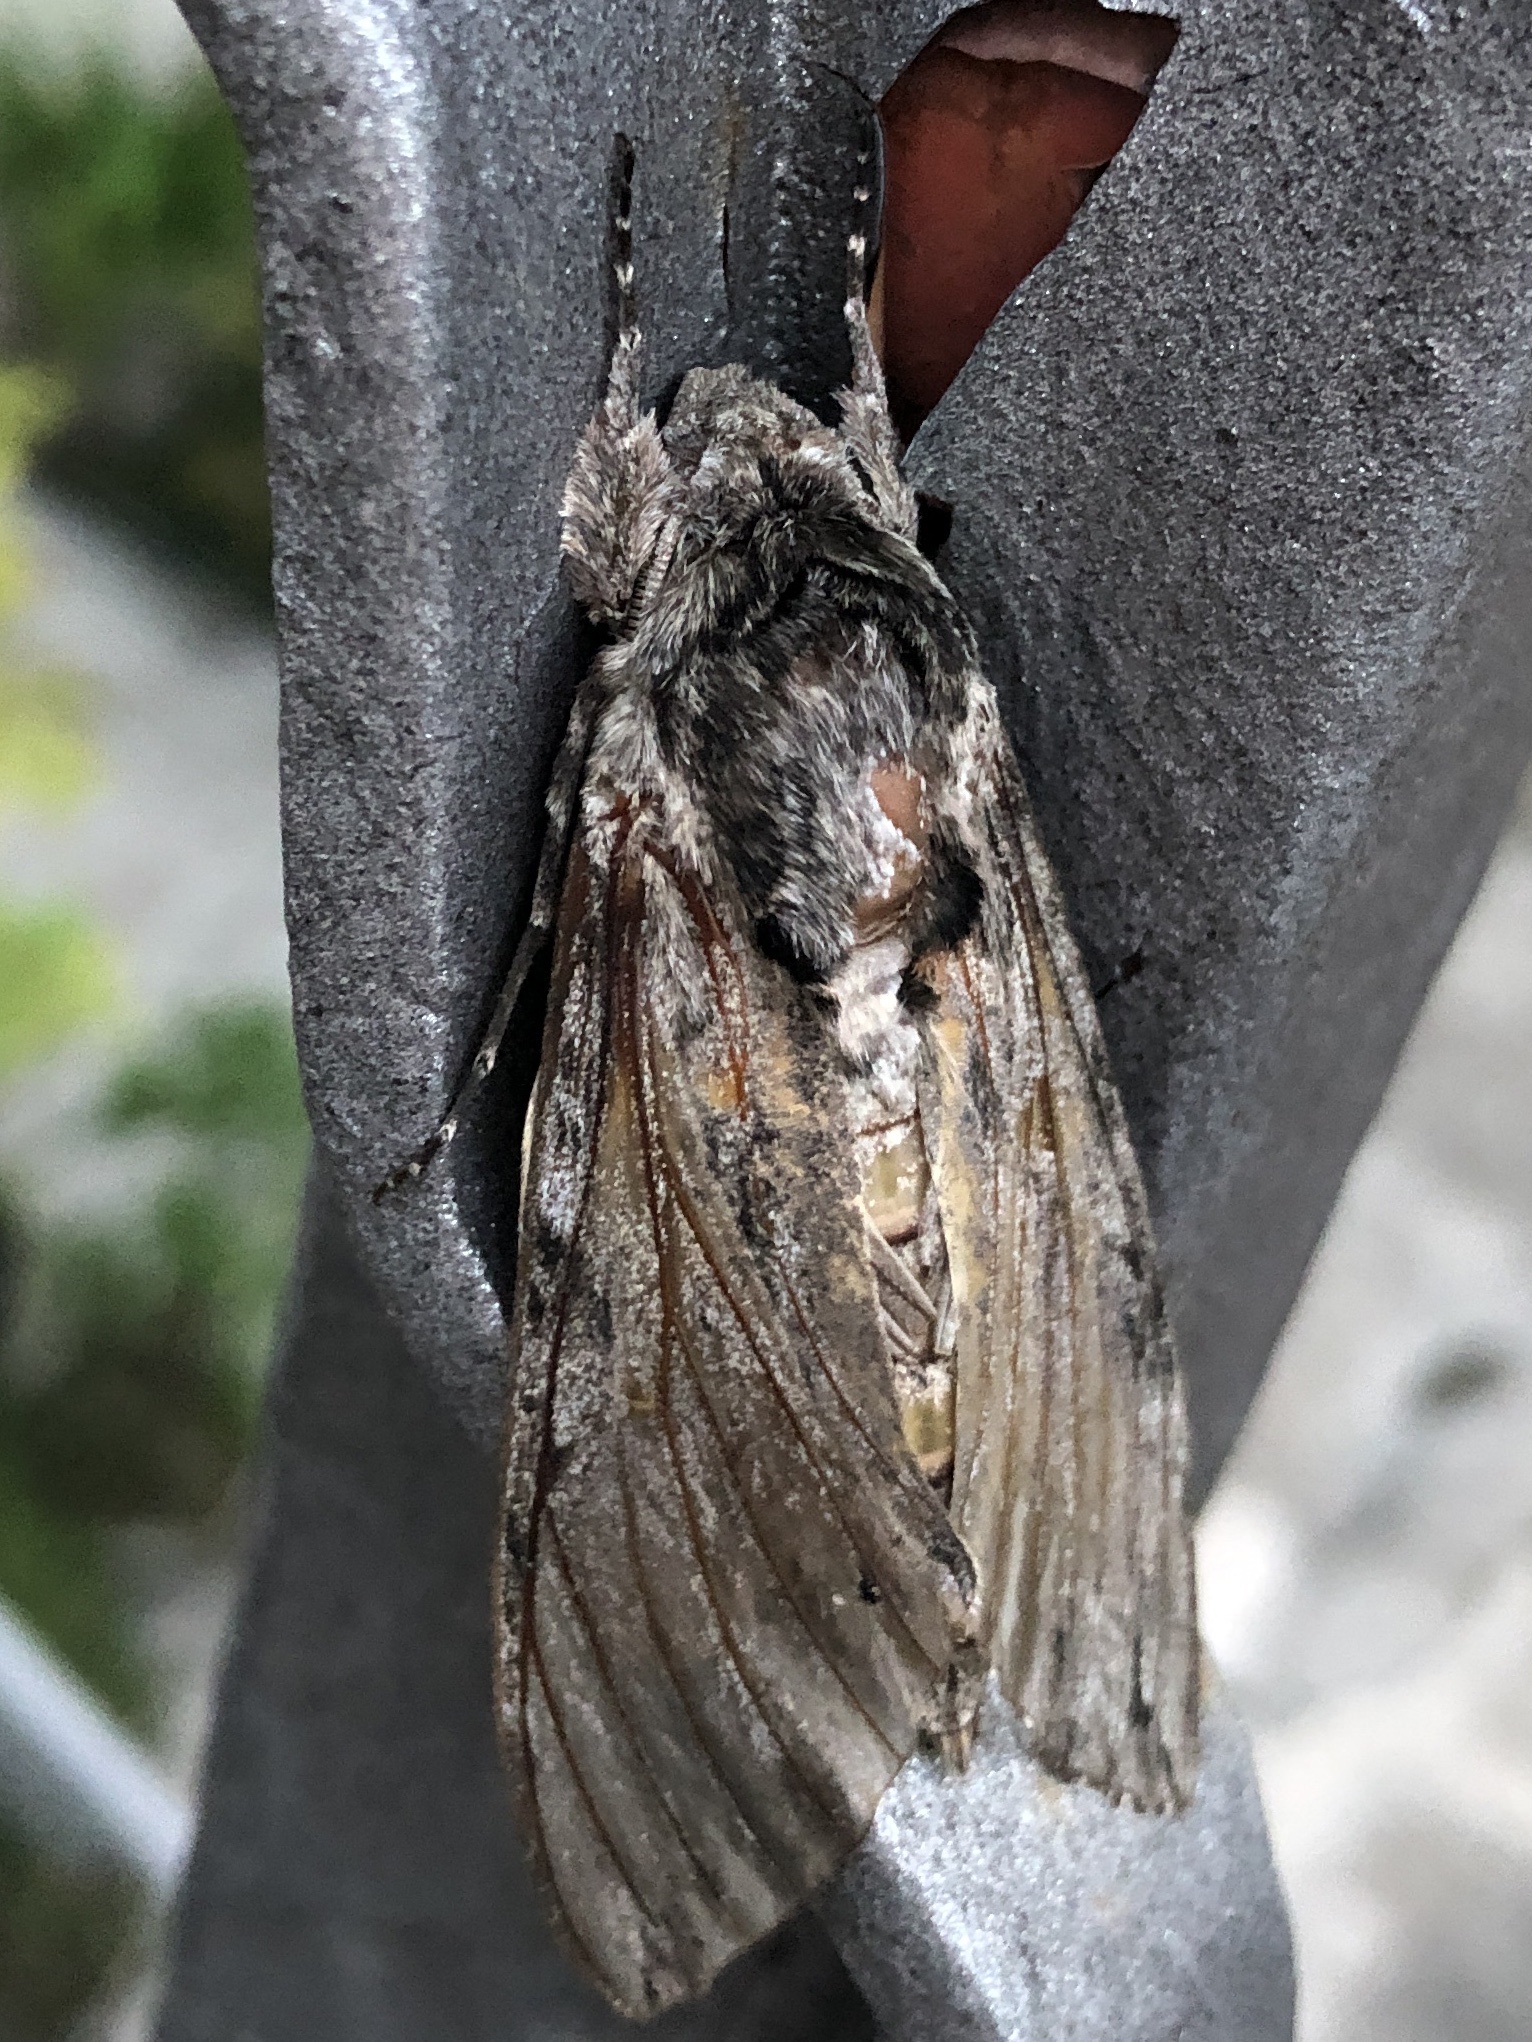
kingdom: Animalia
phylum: Arthropoda
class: Insecta
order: Lepidoptera
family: Sphingidae
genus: Agrius
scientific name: Agrius convolvuli
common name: Convolvulus hawkmoth
